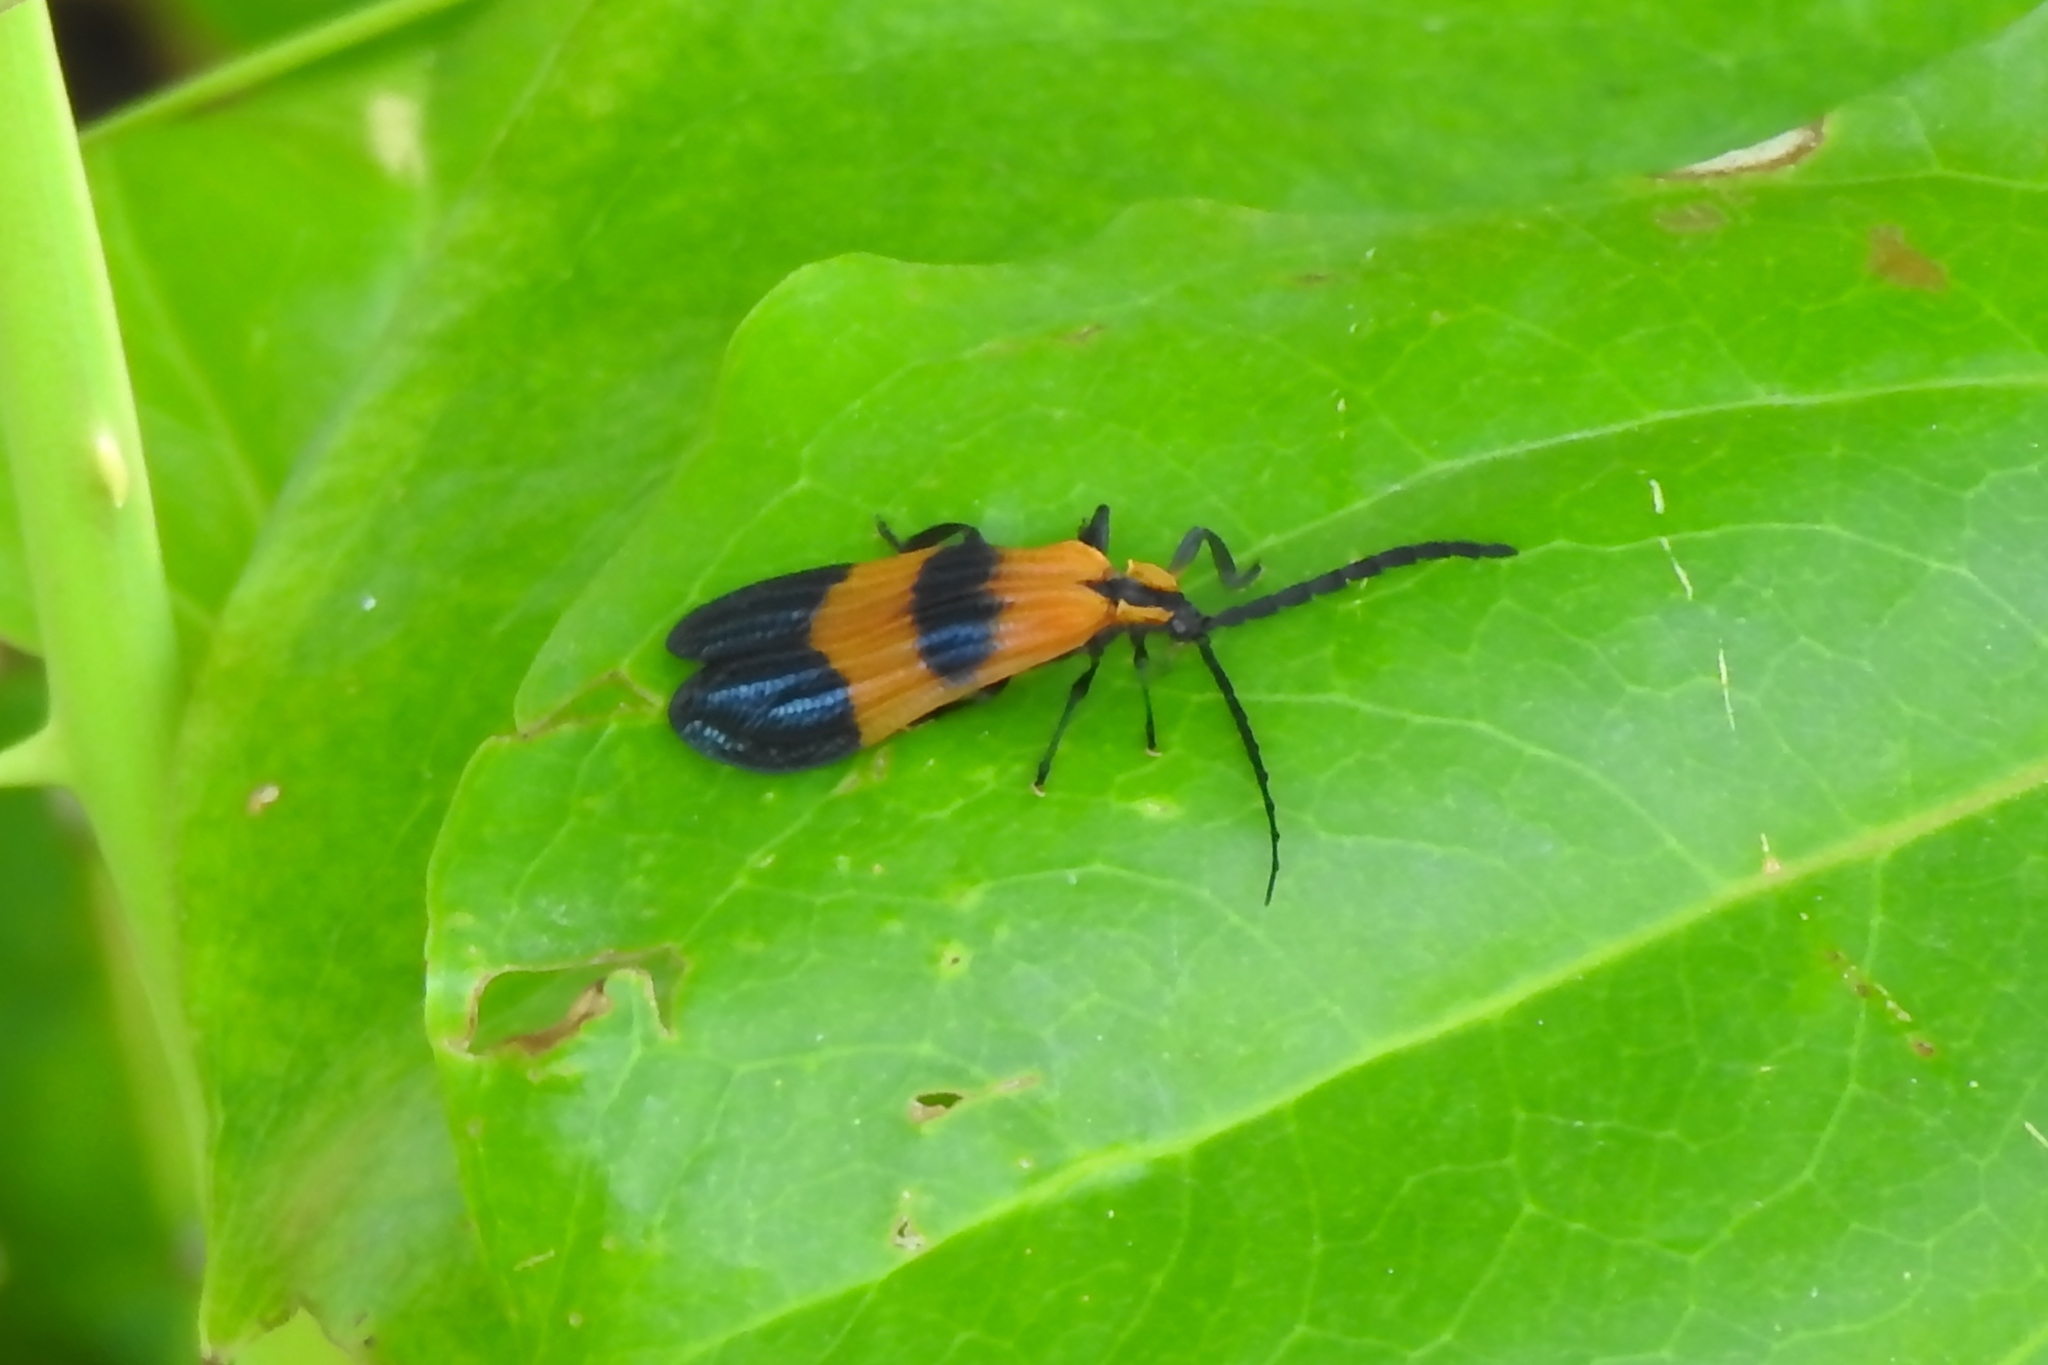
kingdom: Animalia
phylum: Arthropoda
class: Insecta
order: Coleoptera
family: Lycidae
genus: Calopteron
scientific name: Calopteron terminale
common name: End band net-winged beetle
